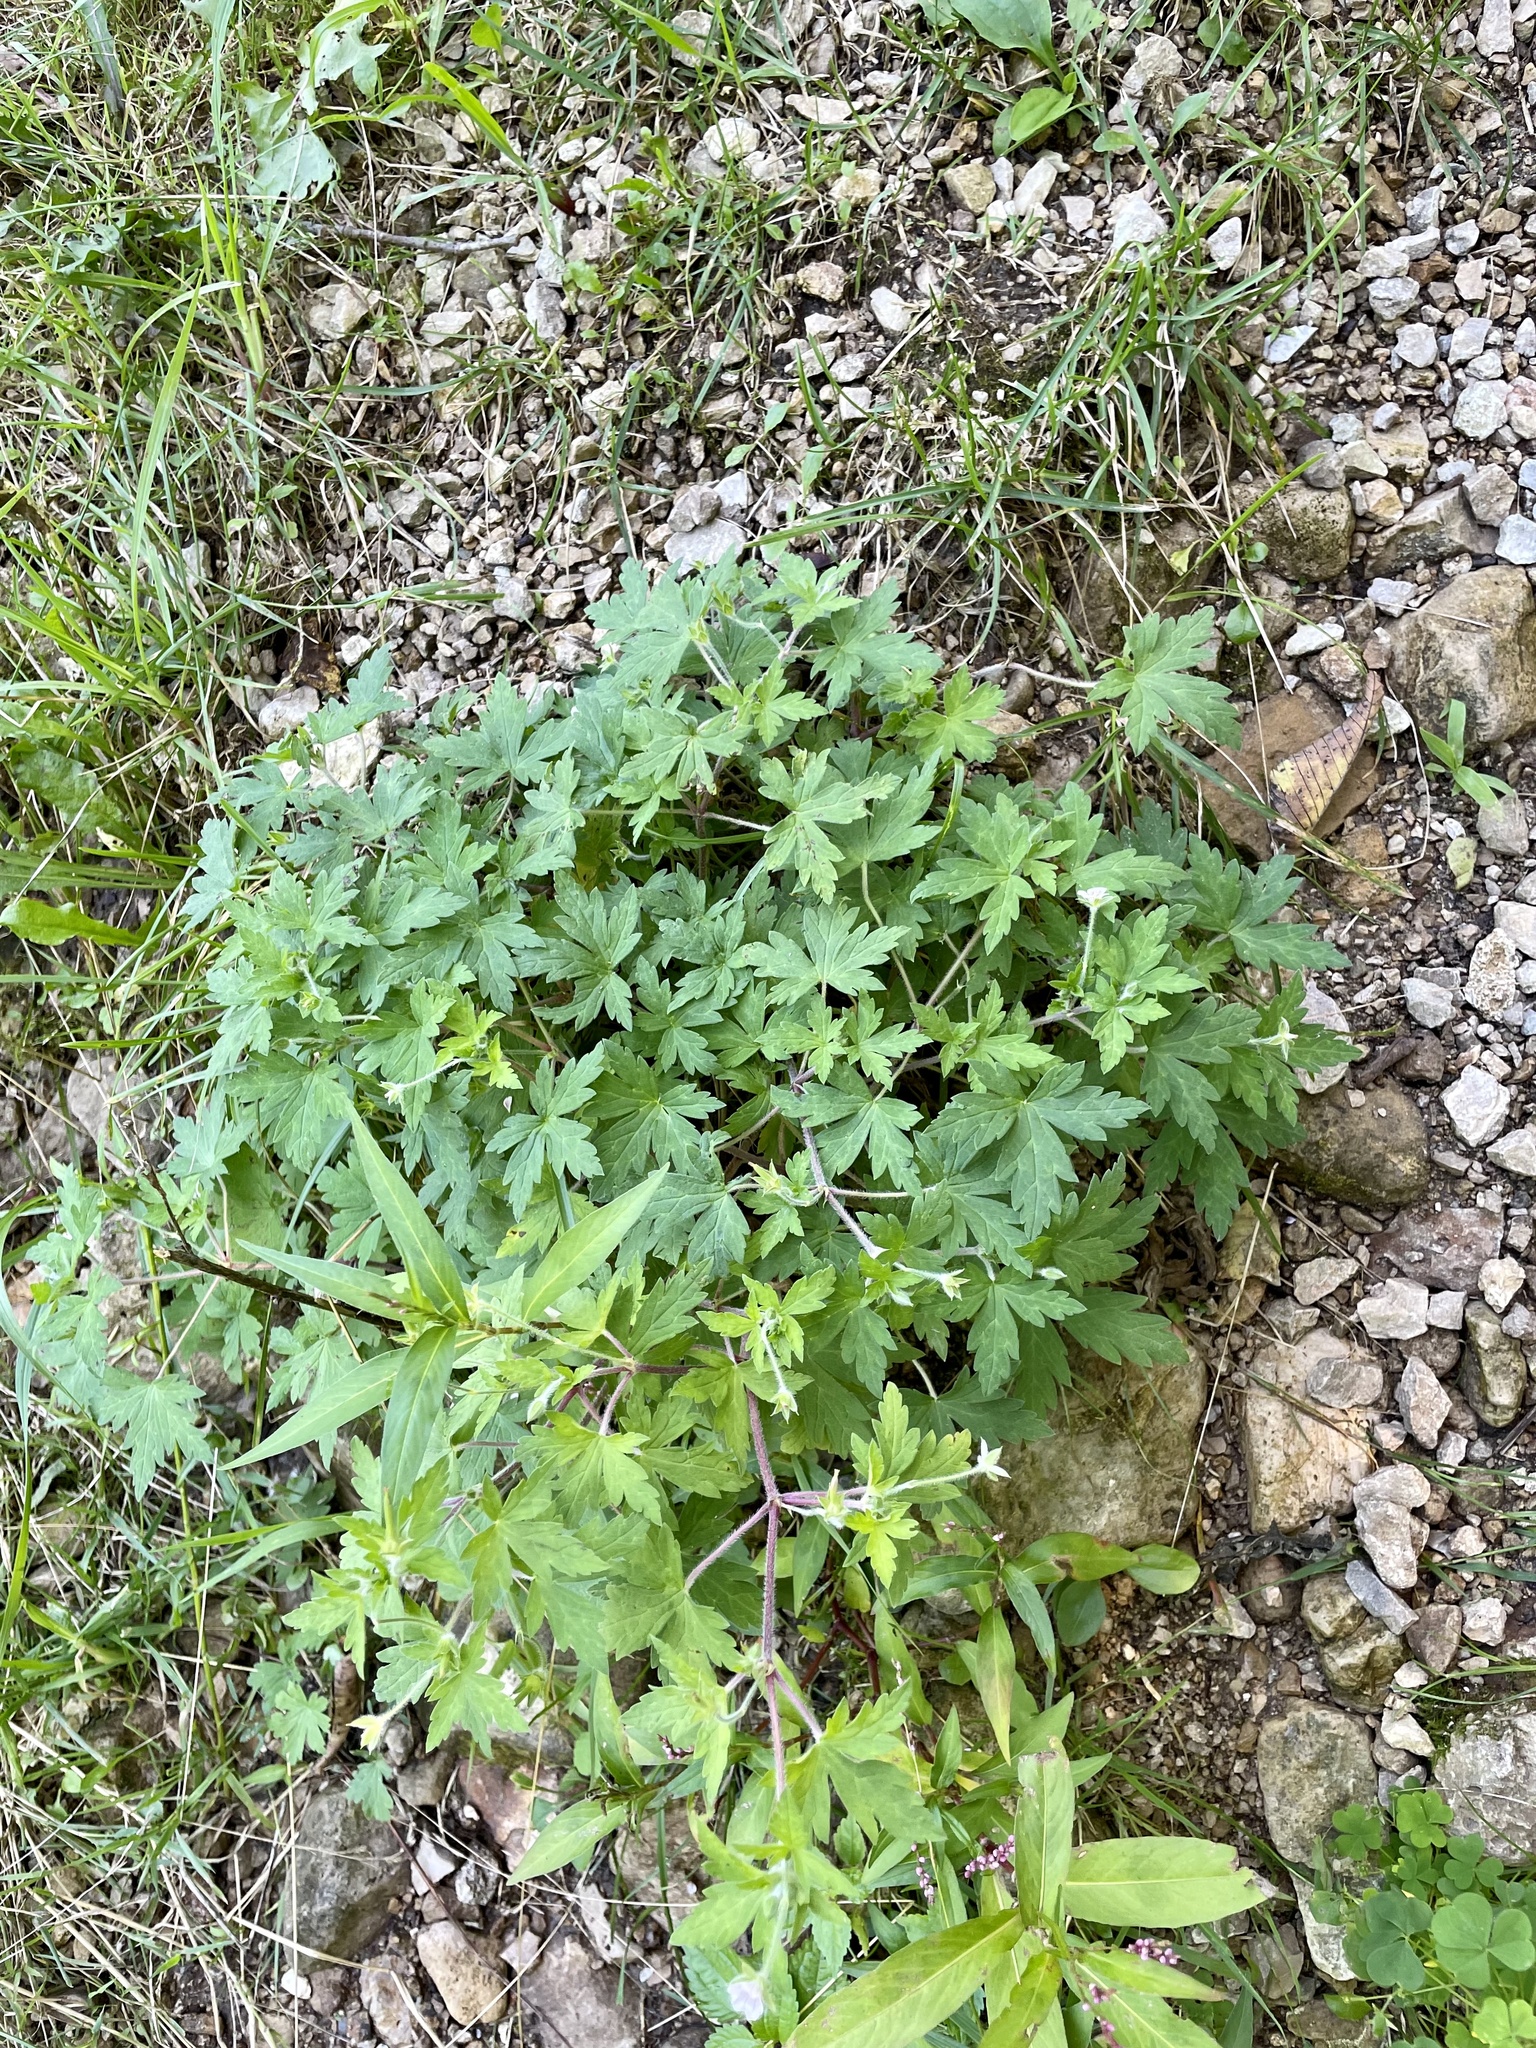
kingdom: Plantae
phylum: Tracheophyta
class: Magnoliopsida
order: Geraniales
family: Geraniaceae
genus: Geranium
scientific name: Geranium sibiricum
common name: Siberian crane's-bill
